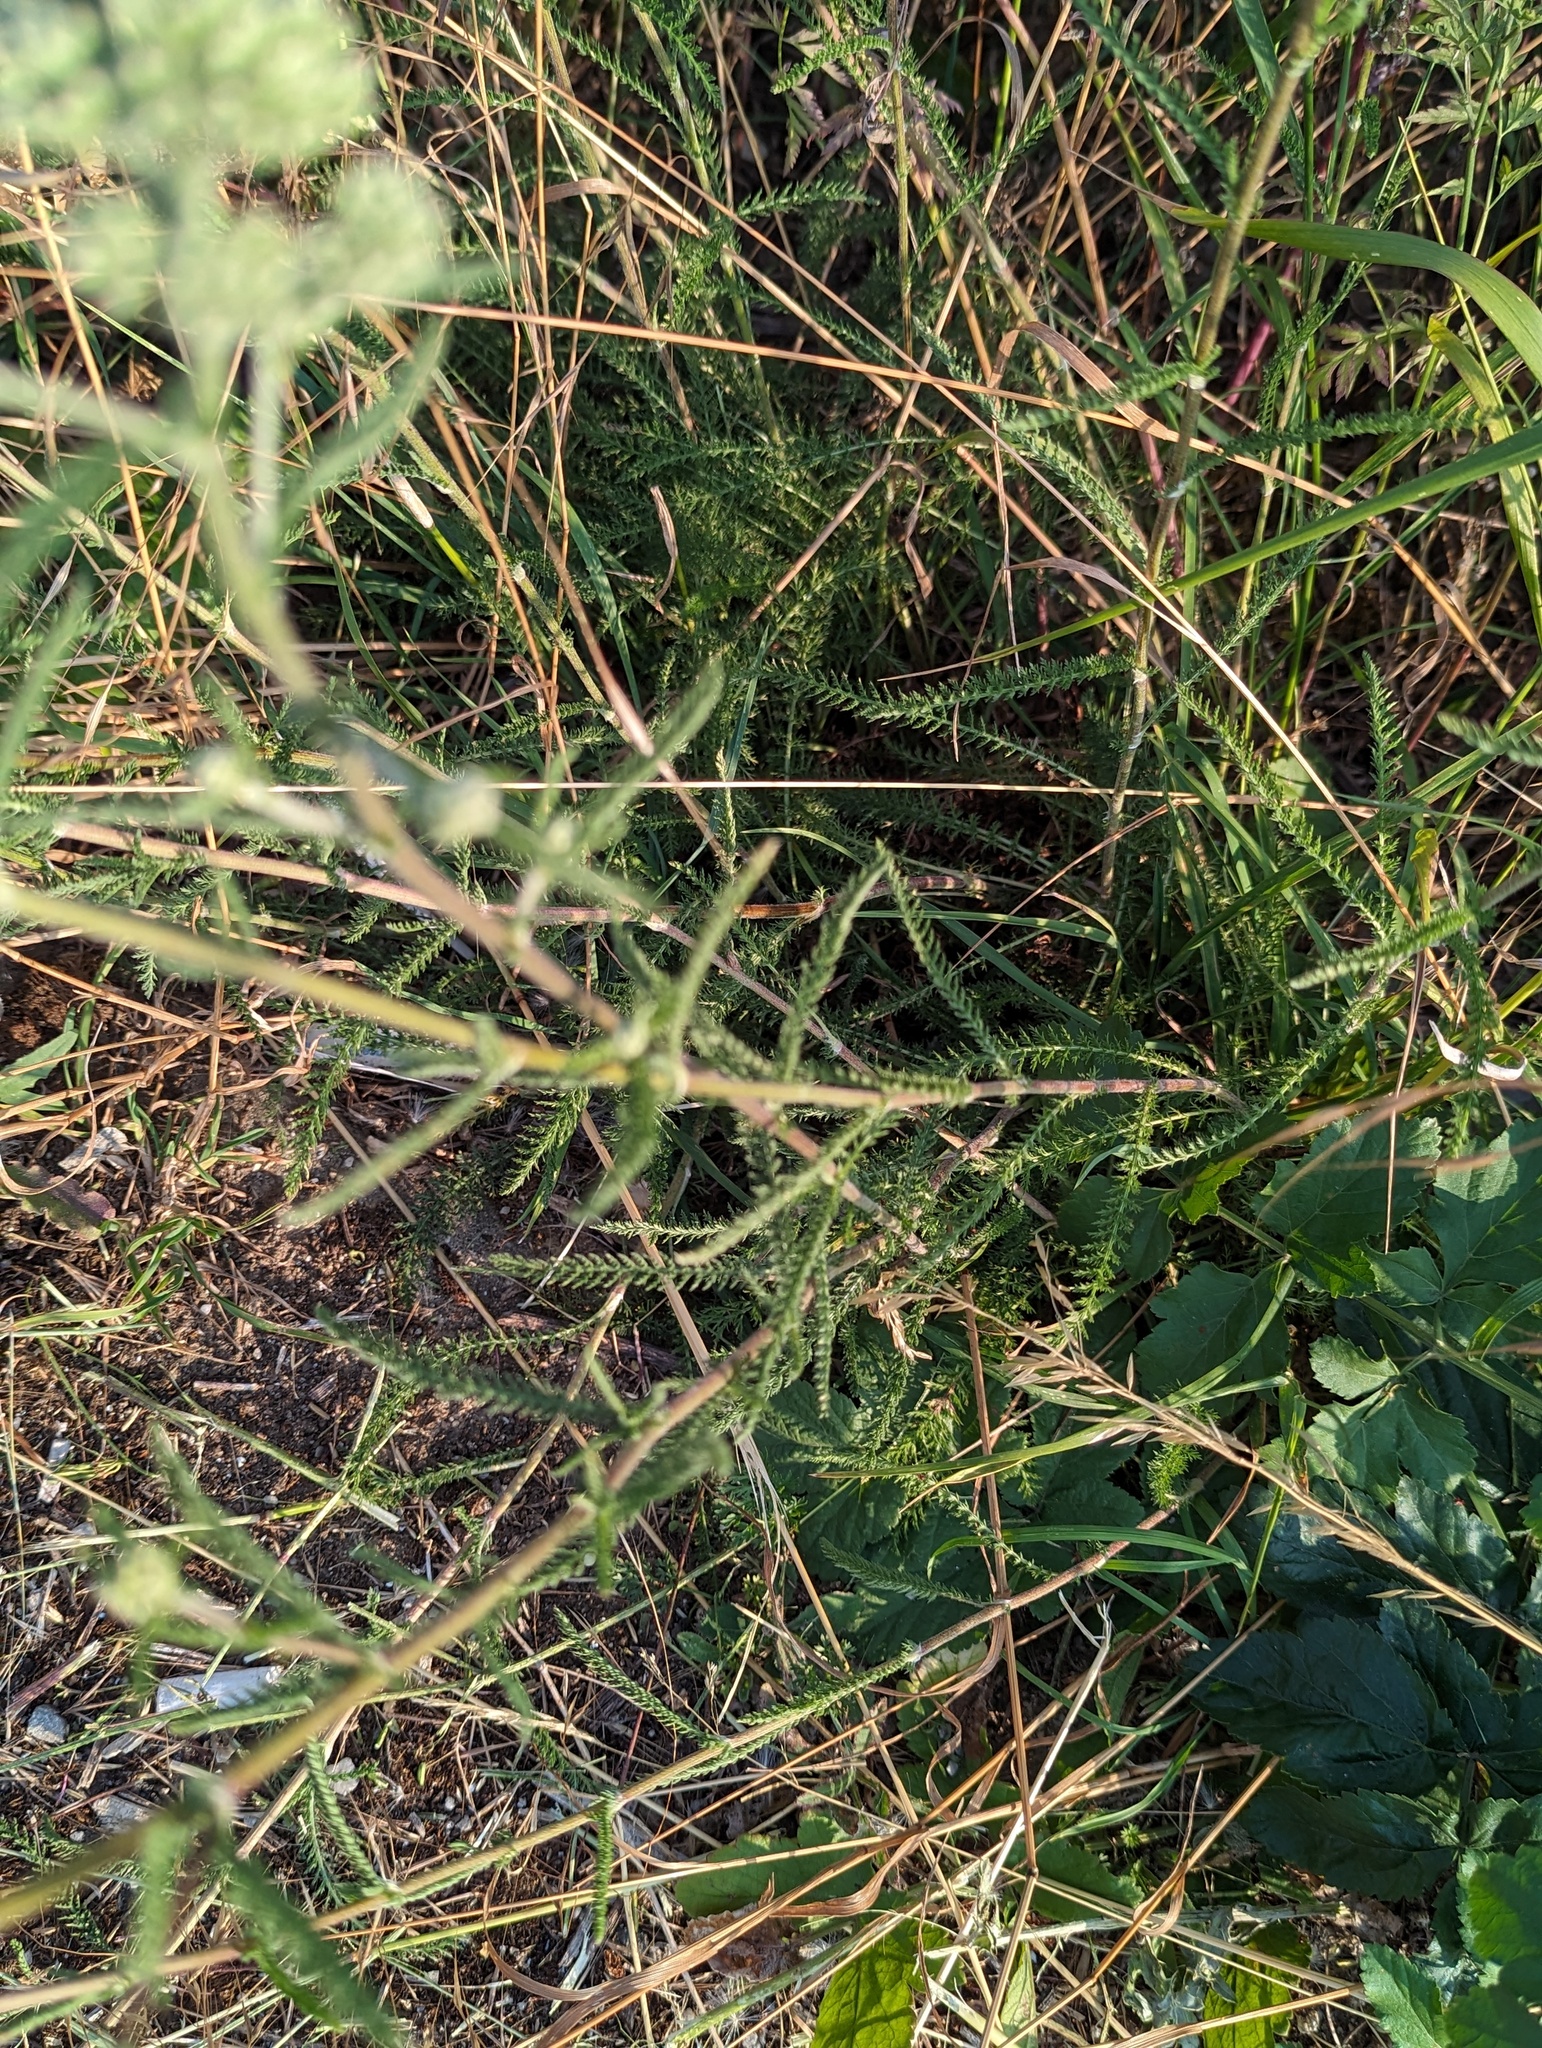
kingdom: Plantae
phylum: Tracheophyta
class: Magnoliopsida
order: Asterales
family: Asteraceae
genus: Achillea
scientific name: Achillea millefolium
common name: Yarrow
